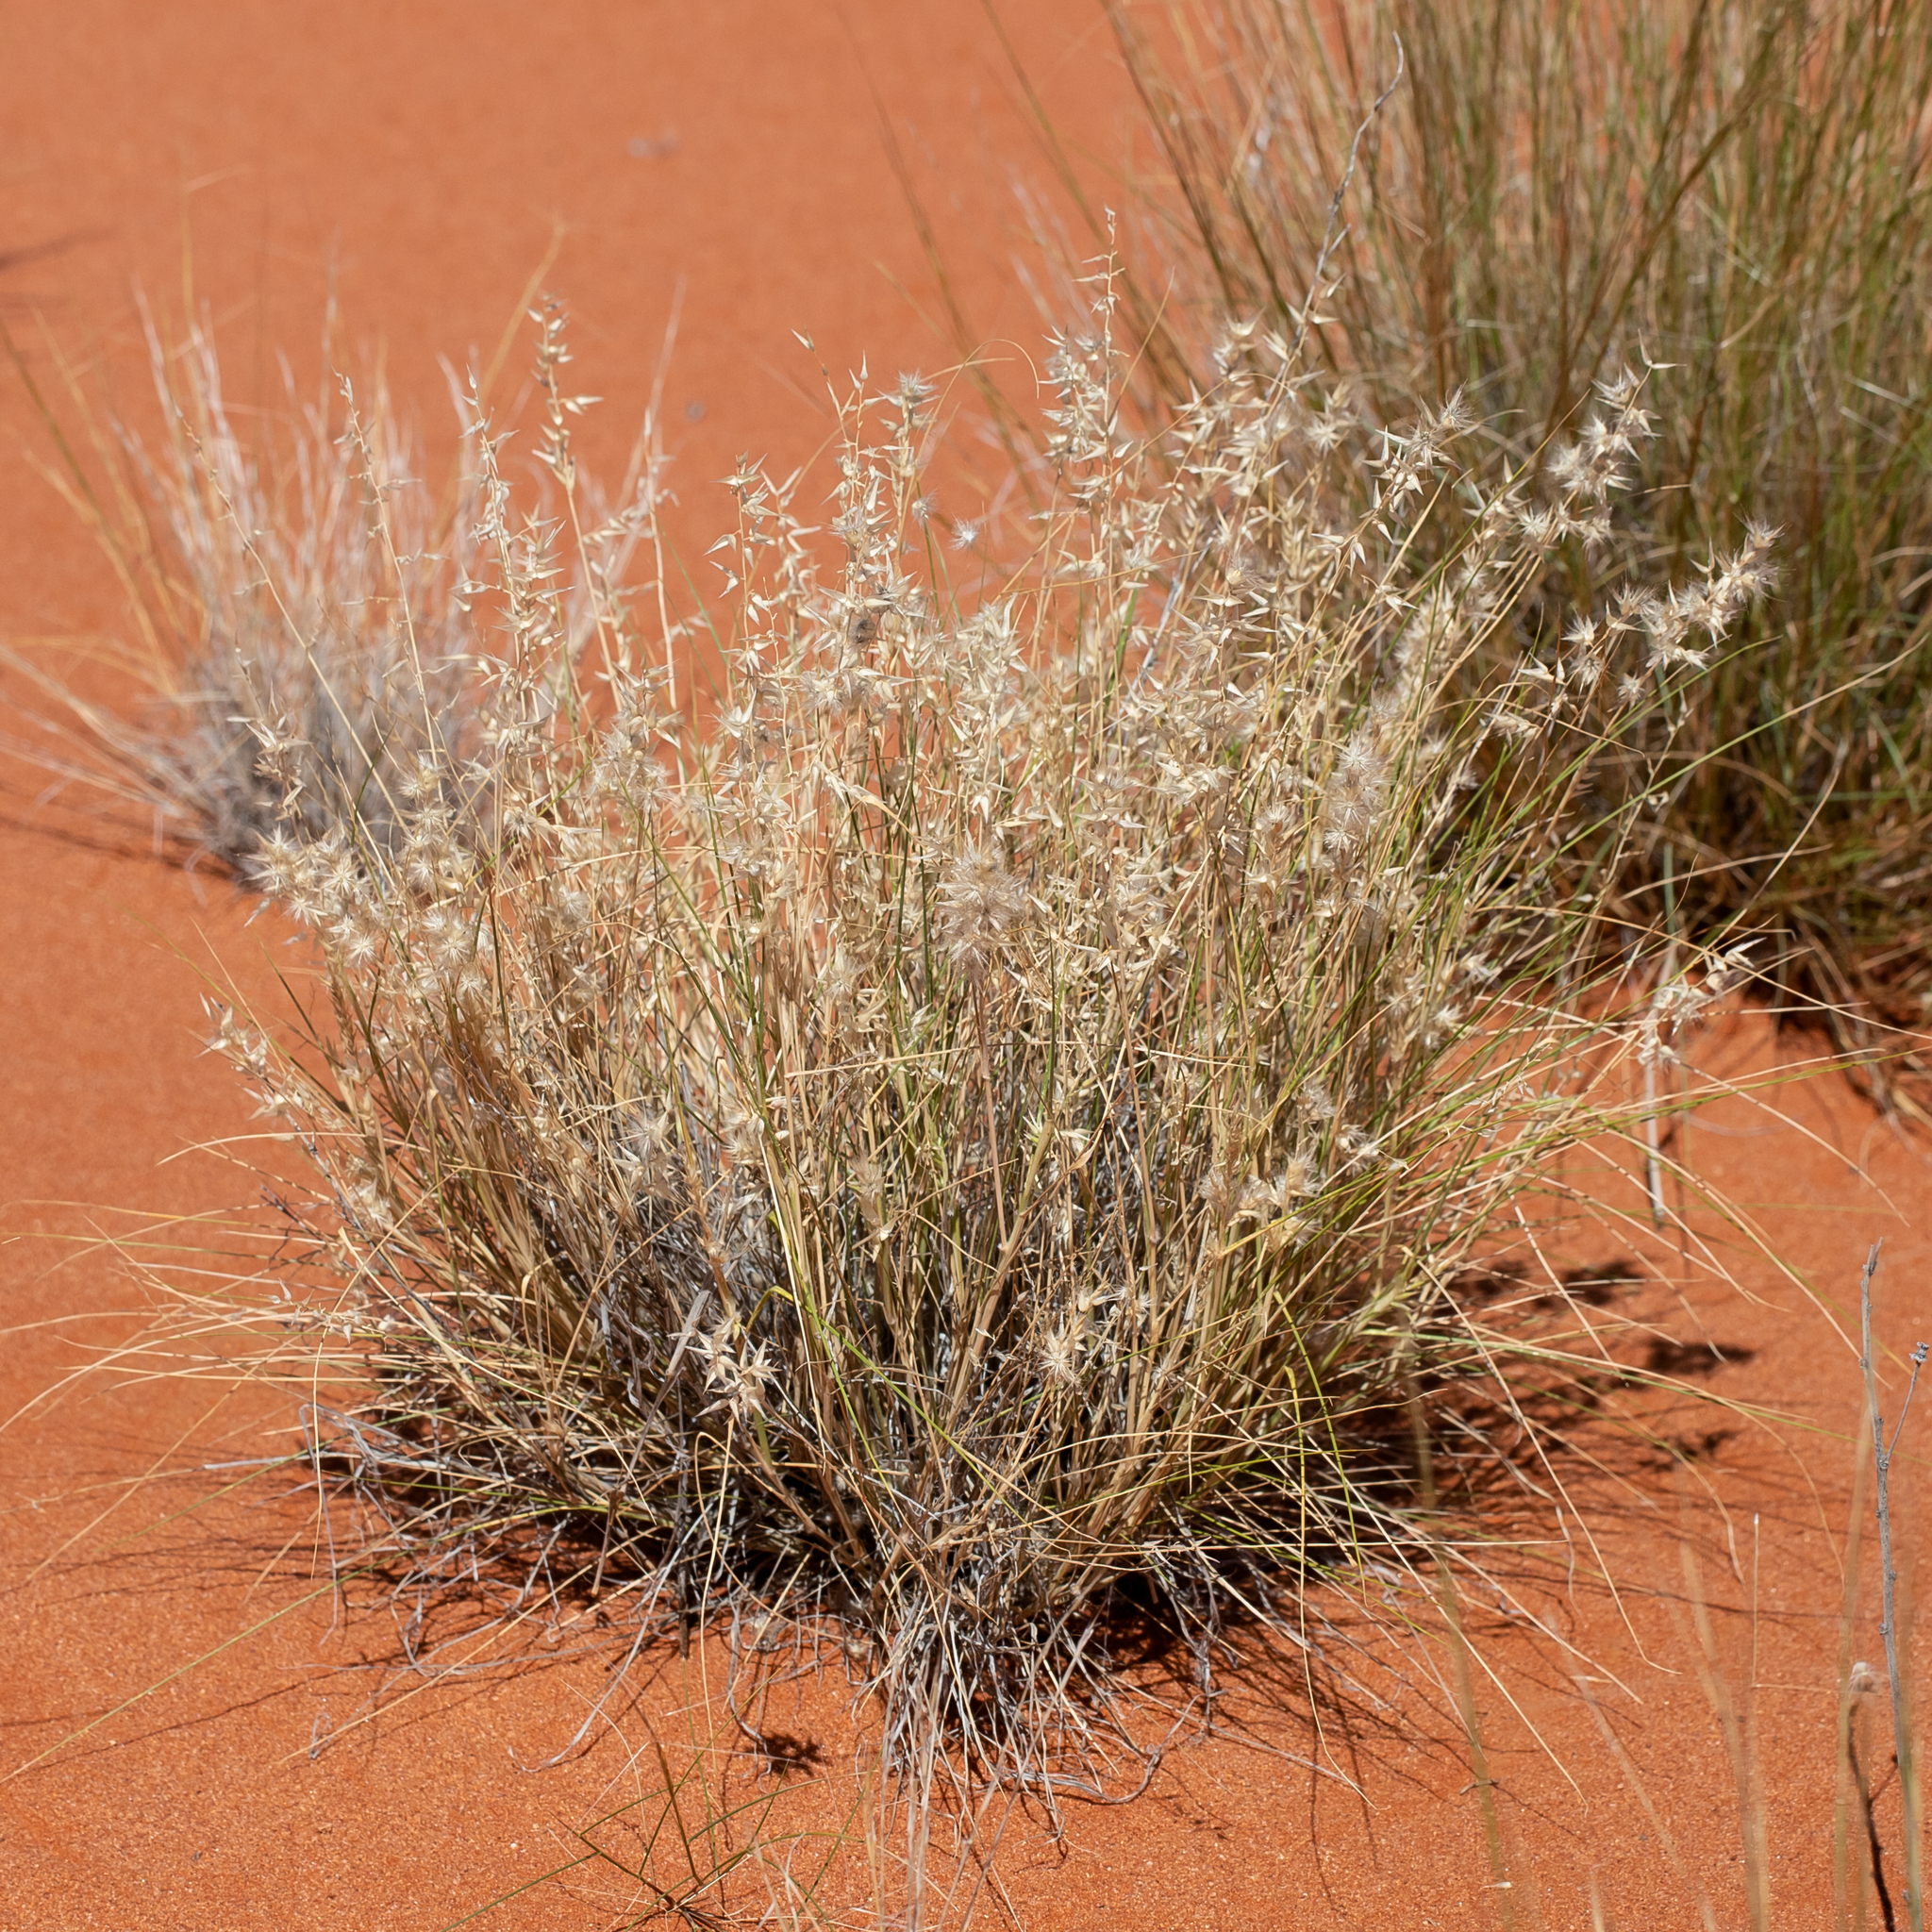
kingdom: Plantae
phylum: Tracheophyta
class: Liliopsida
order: Poales
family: Poaceae
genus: Enneapogon
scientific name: Enneapogon avenaceus
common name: Hairy oat grass
